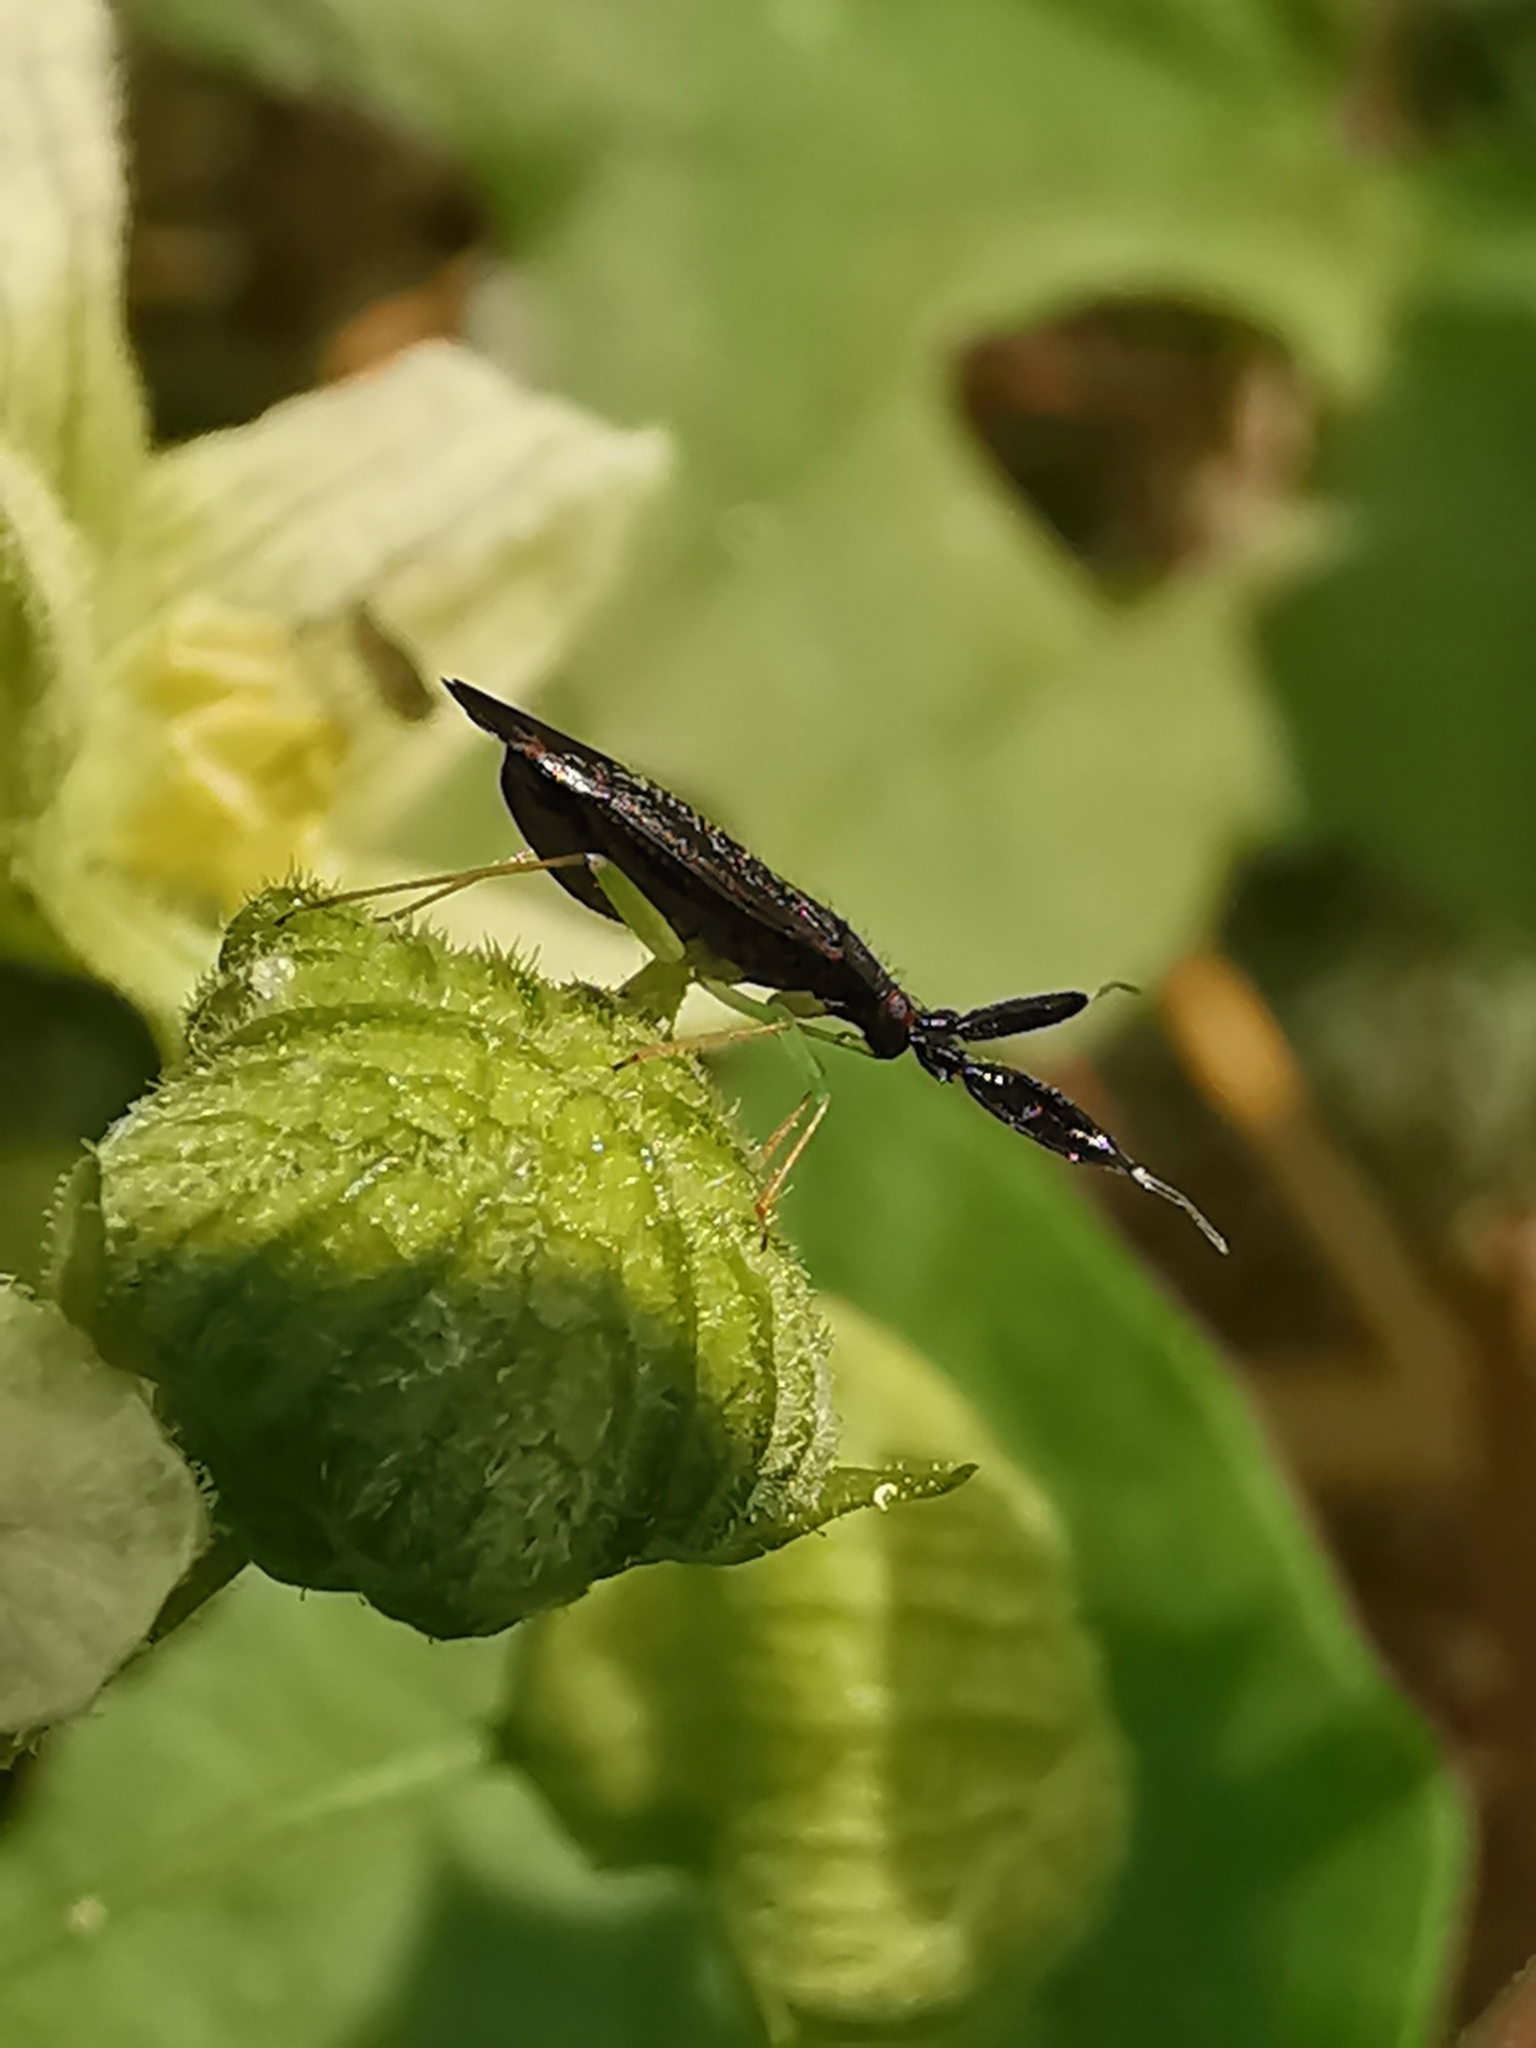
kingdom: Animalia
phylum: Arthropoda
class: Insecta
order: Hemiptera
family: Miridae
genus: Heterotoma
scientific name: Heterotoma planicornis
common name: Plant bug
